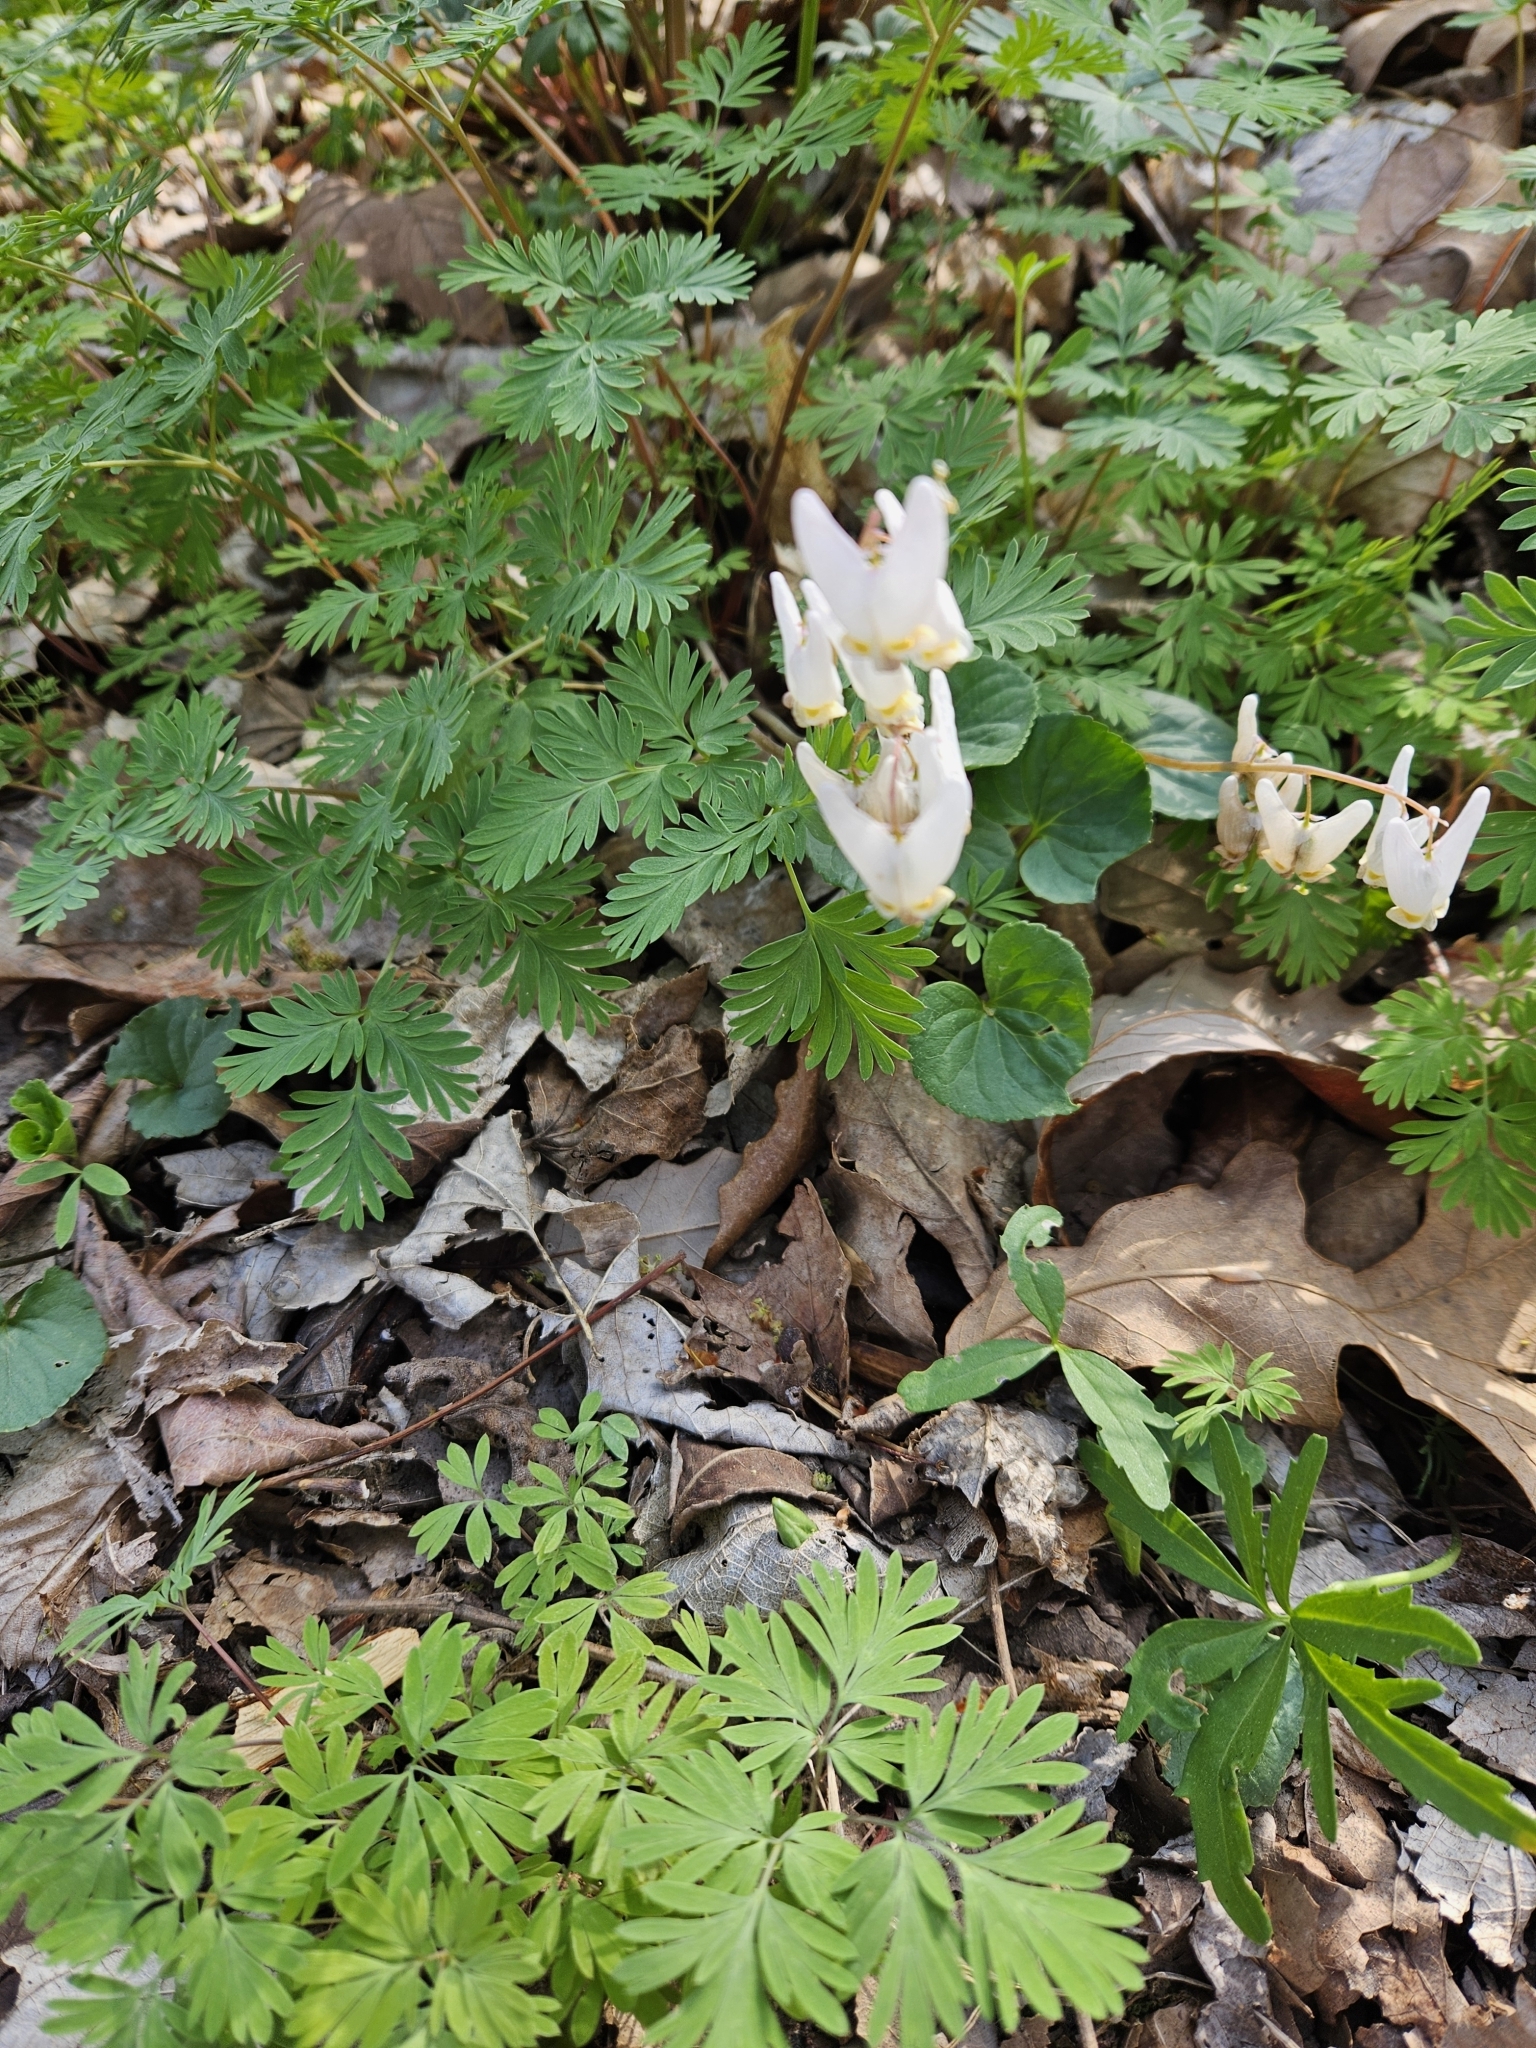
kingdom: Plantae
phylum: Tracheophyta
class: Magnoliopsida
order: Ranunculales
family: Papaveraceae
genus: Dicentra
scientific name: Dicentra cucullaria
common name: Dutchman's breeches
